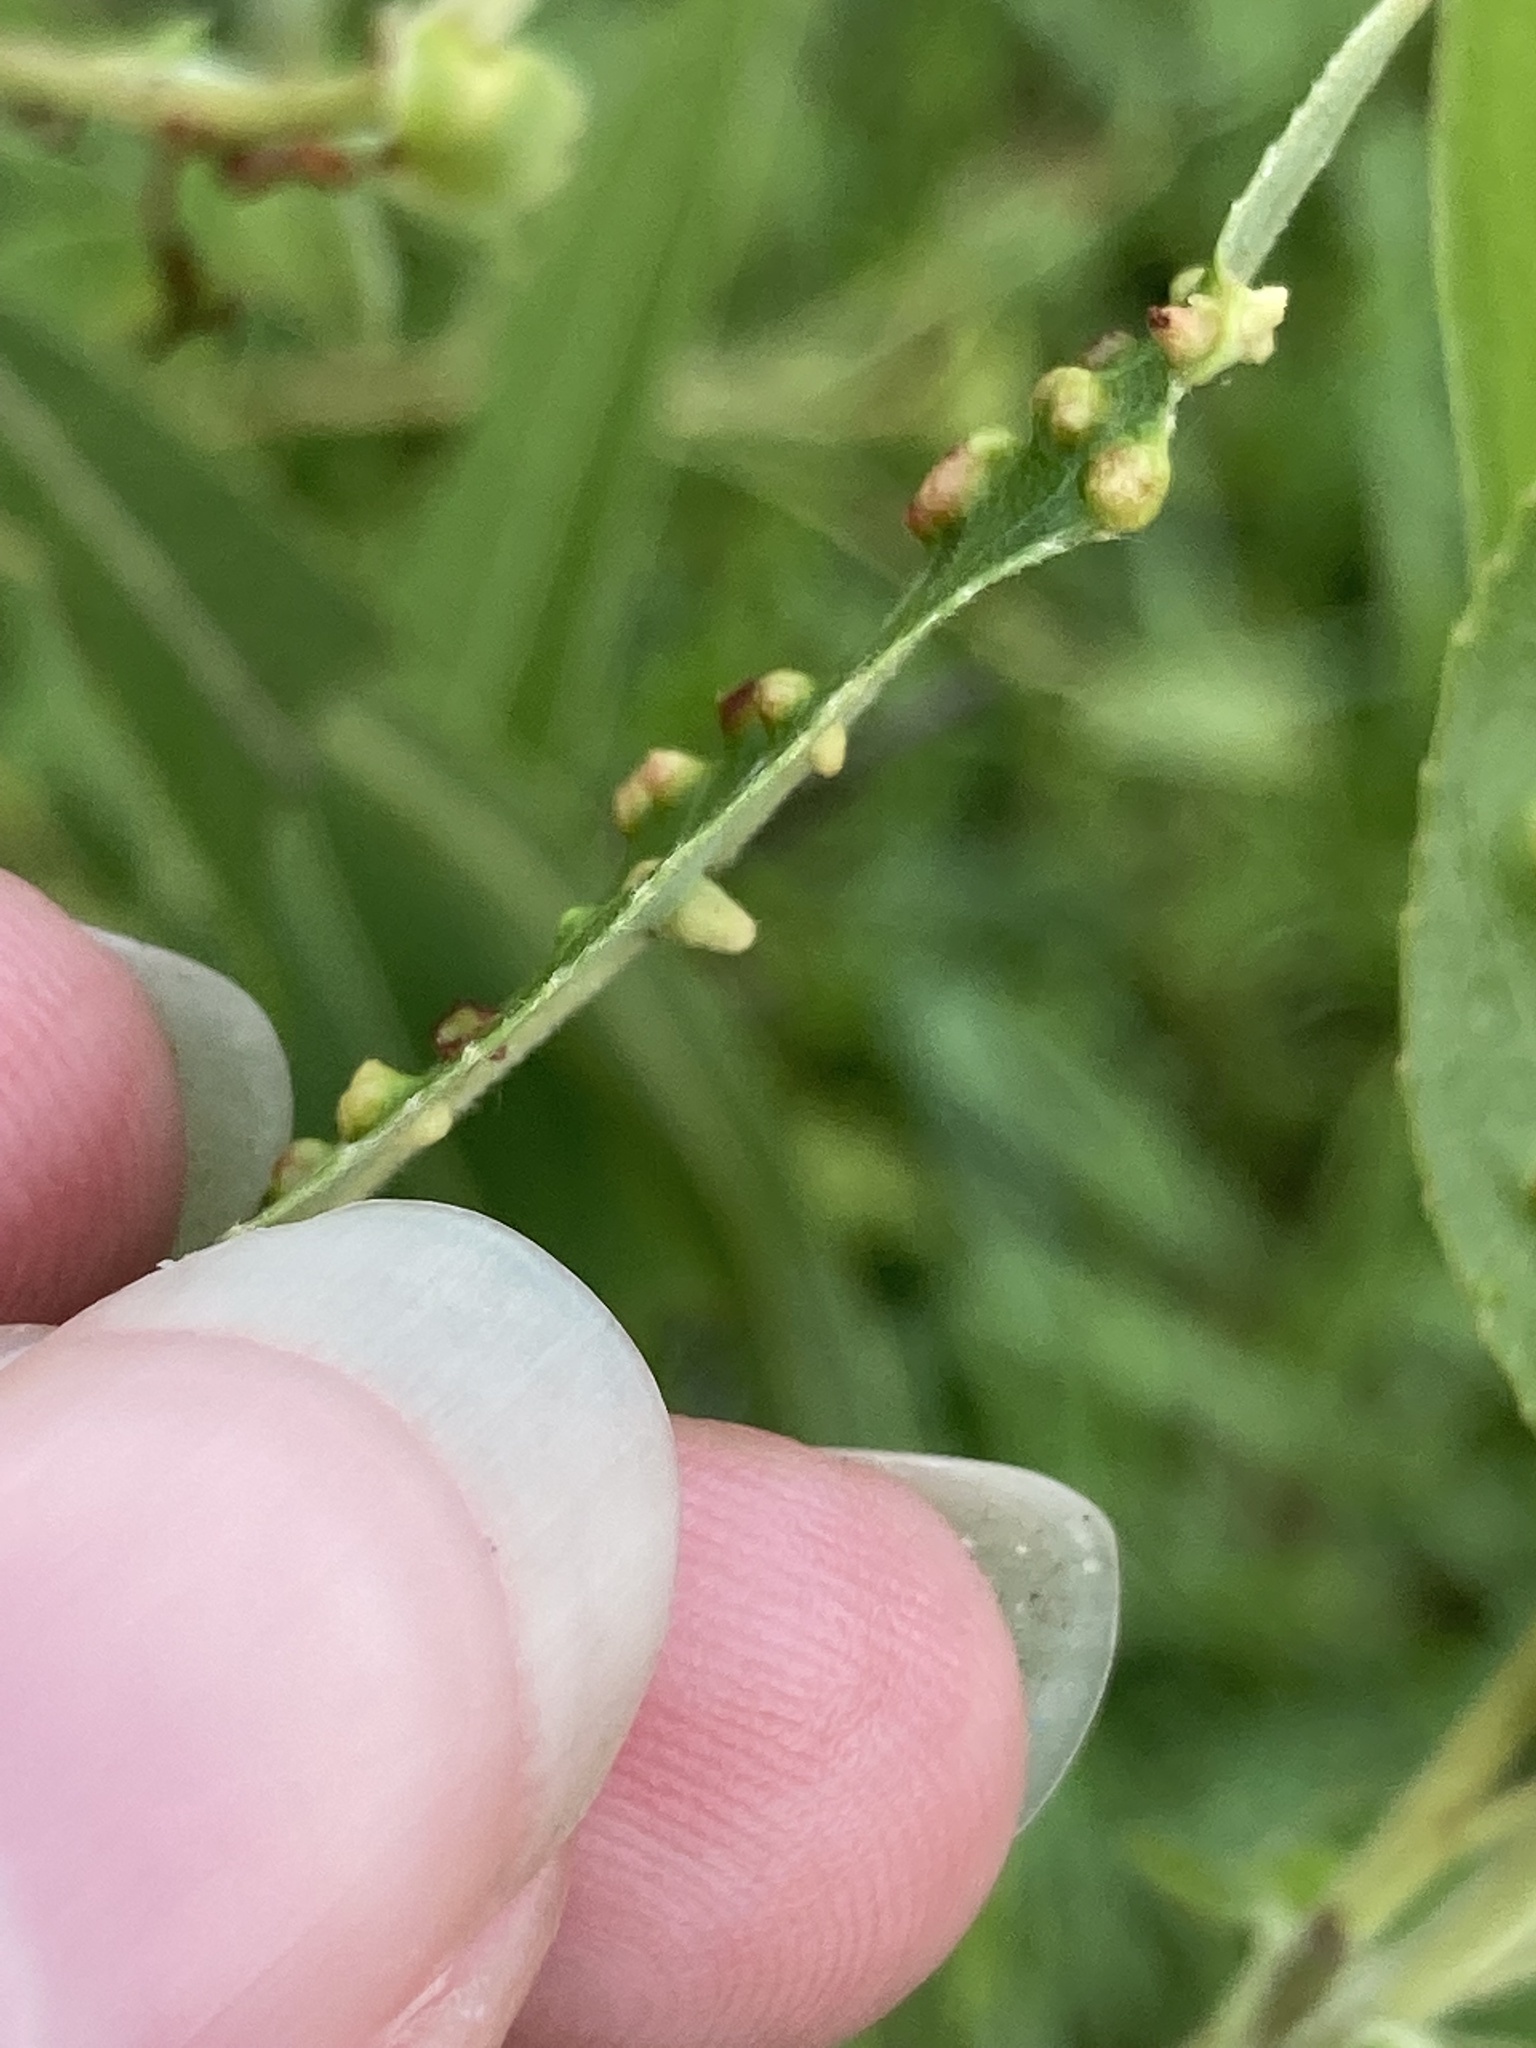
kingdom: Animalia
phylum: Arthropoda
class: Arachnida
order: Trombidiformes
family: Eriophyidae
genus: Aculus
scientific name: Aculus tetanothrix
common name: Willow bead gall mite
